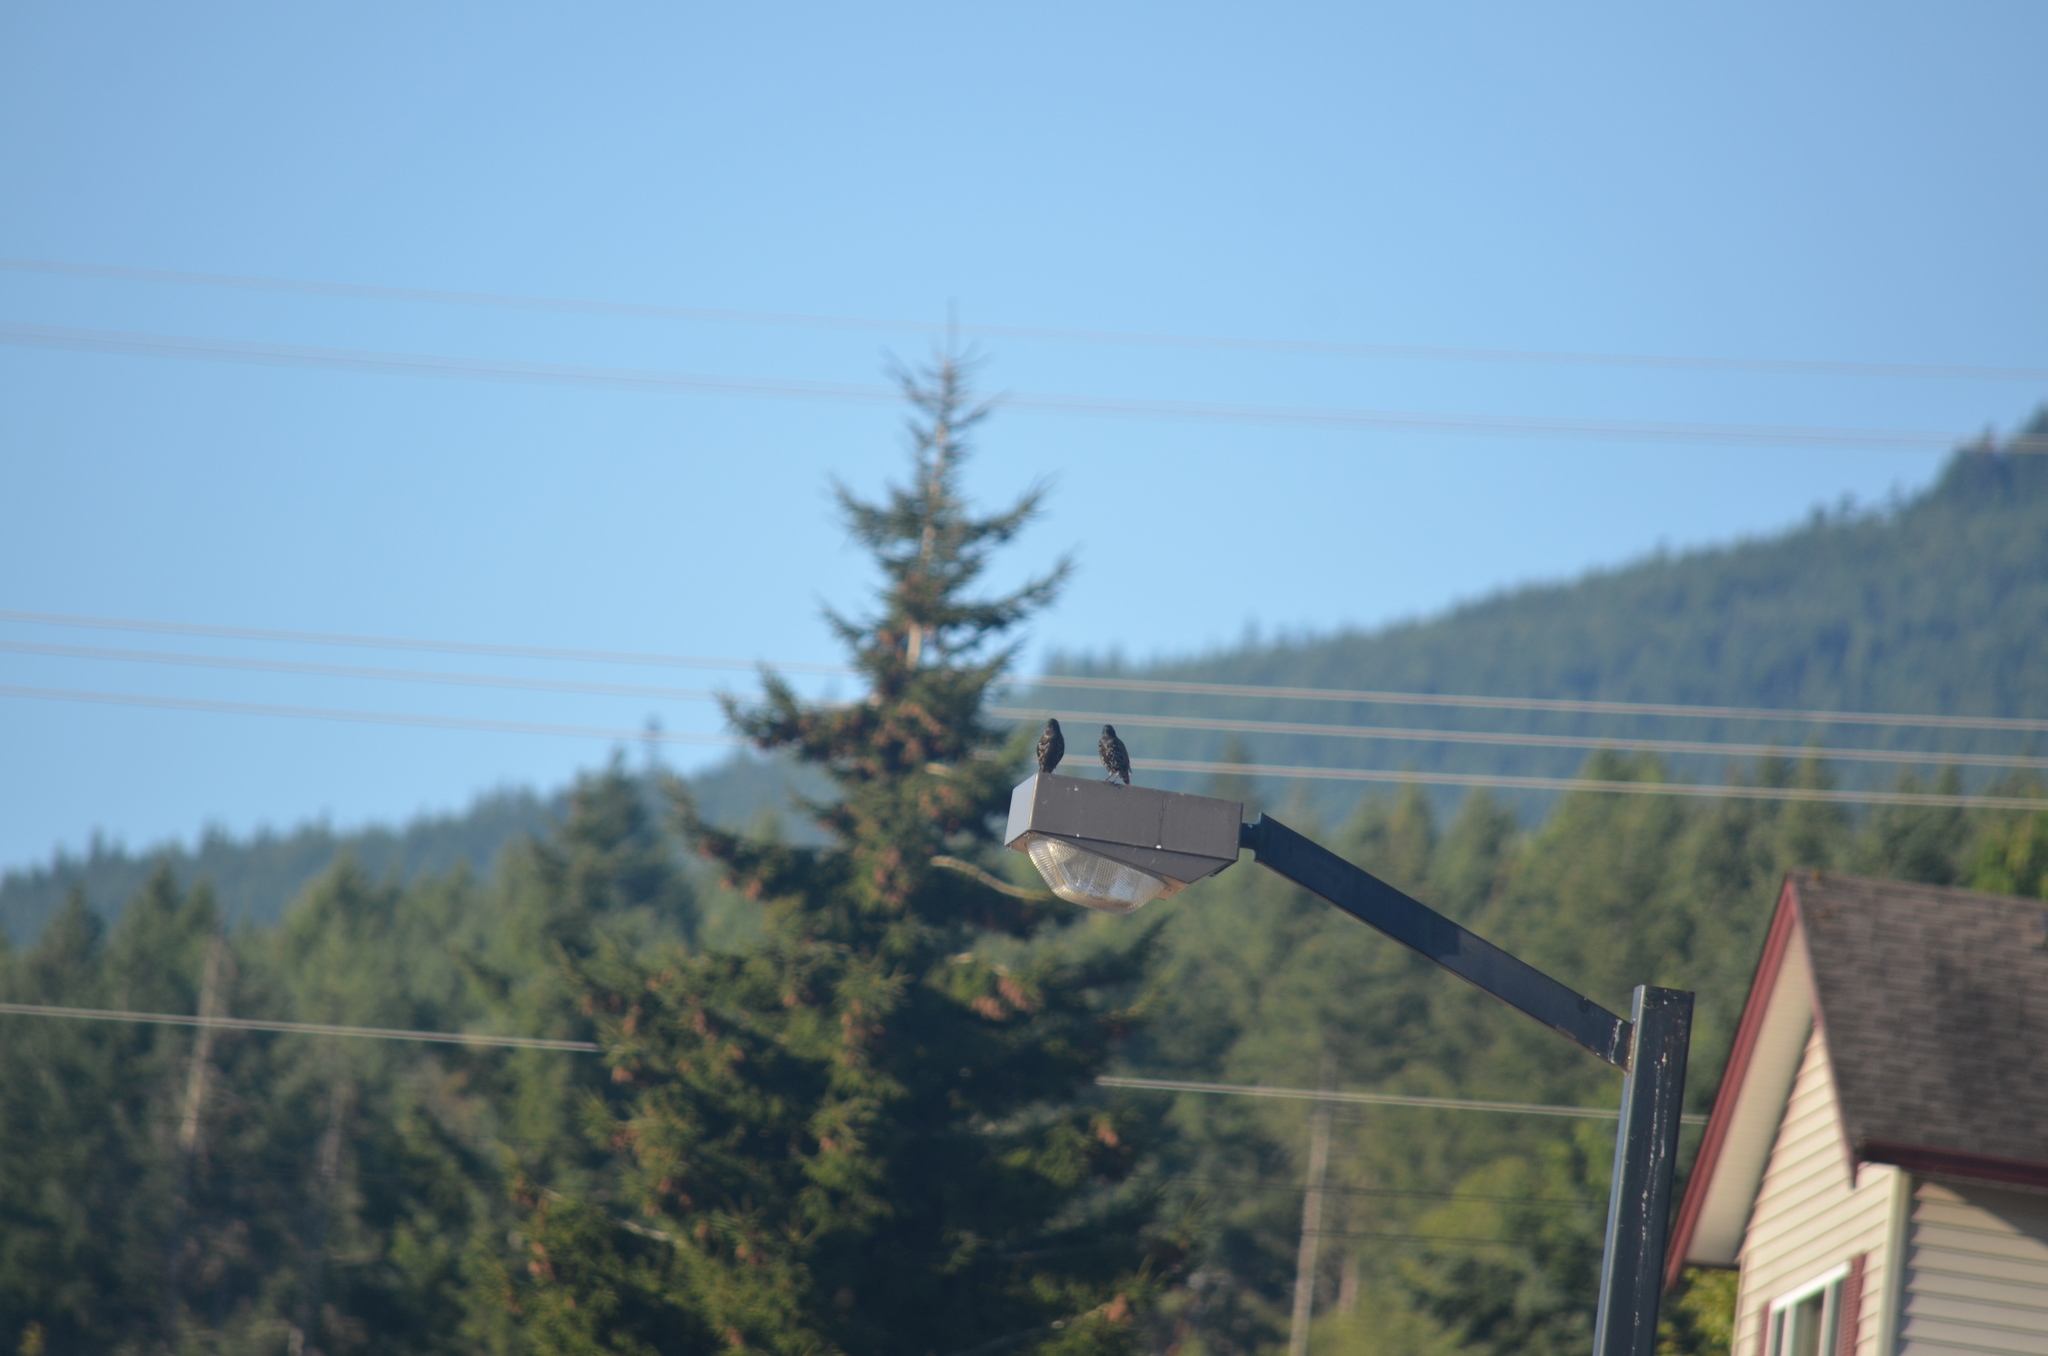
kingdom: Animalia
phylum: Chordata
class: Aves
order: Passeriformes
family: Sturnidae
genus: Sturnus
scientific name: Sturnus vulgaris
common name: Common starling
